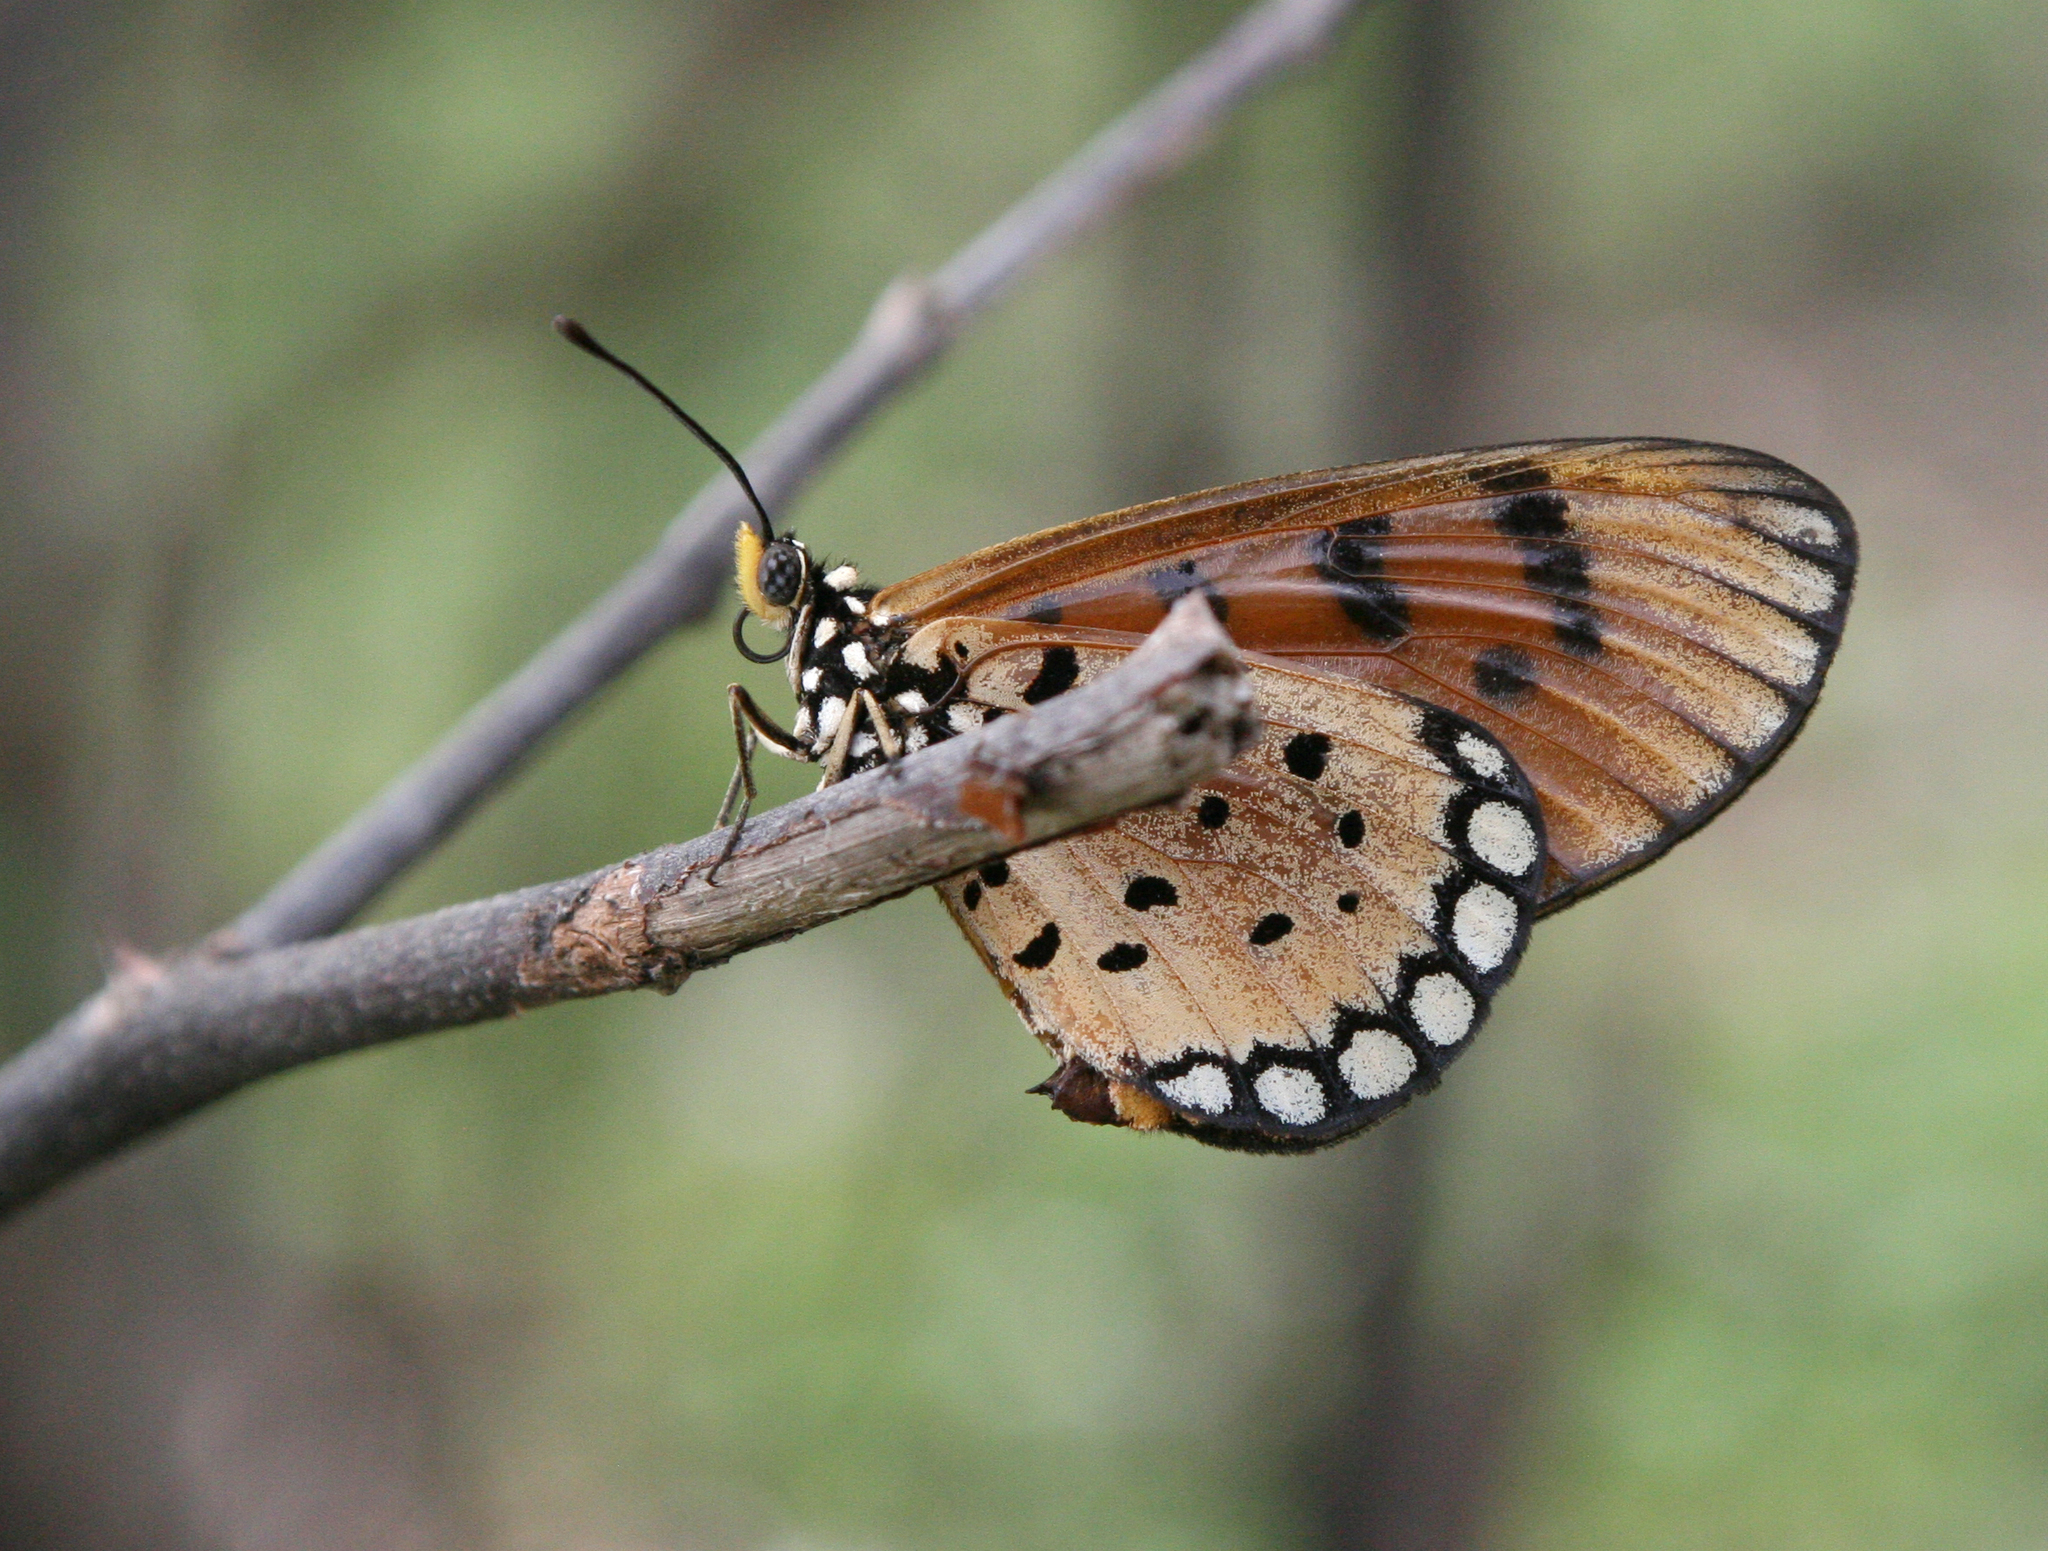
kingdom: Animalia
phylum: Arthropoda
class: Insecta
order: Lepidoptera
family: Nymphalidae
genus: Acraea
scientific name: Acraea terpsicore
